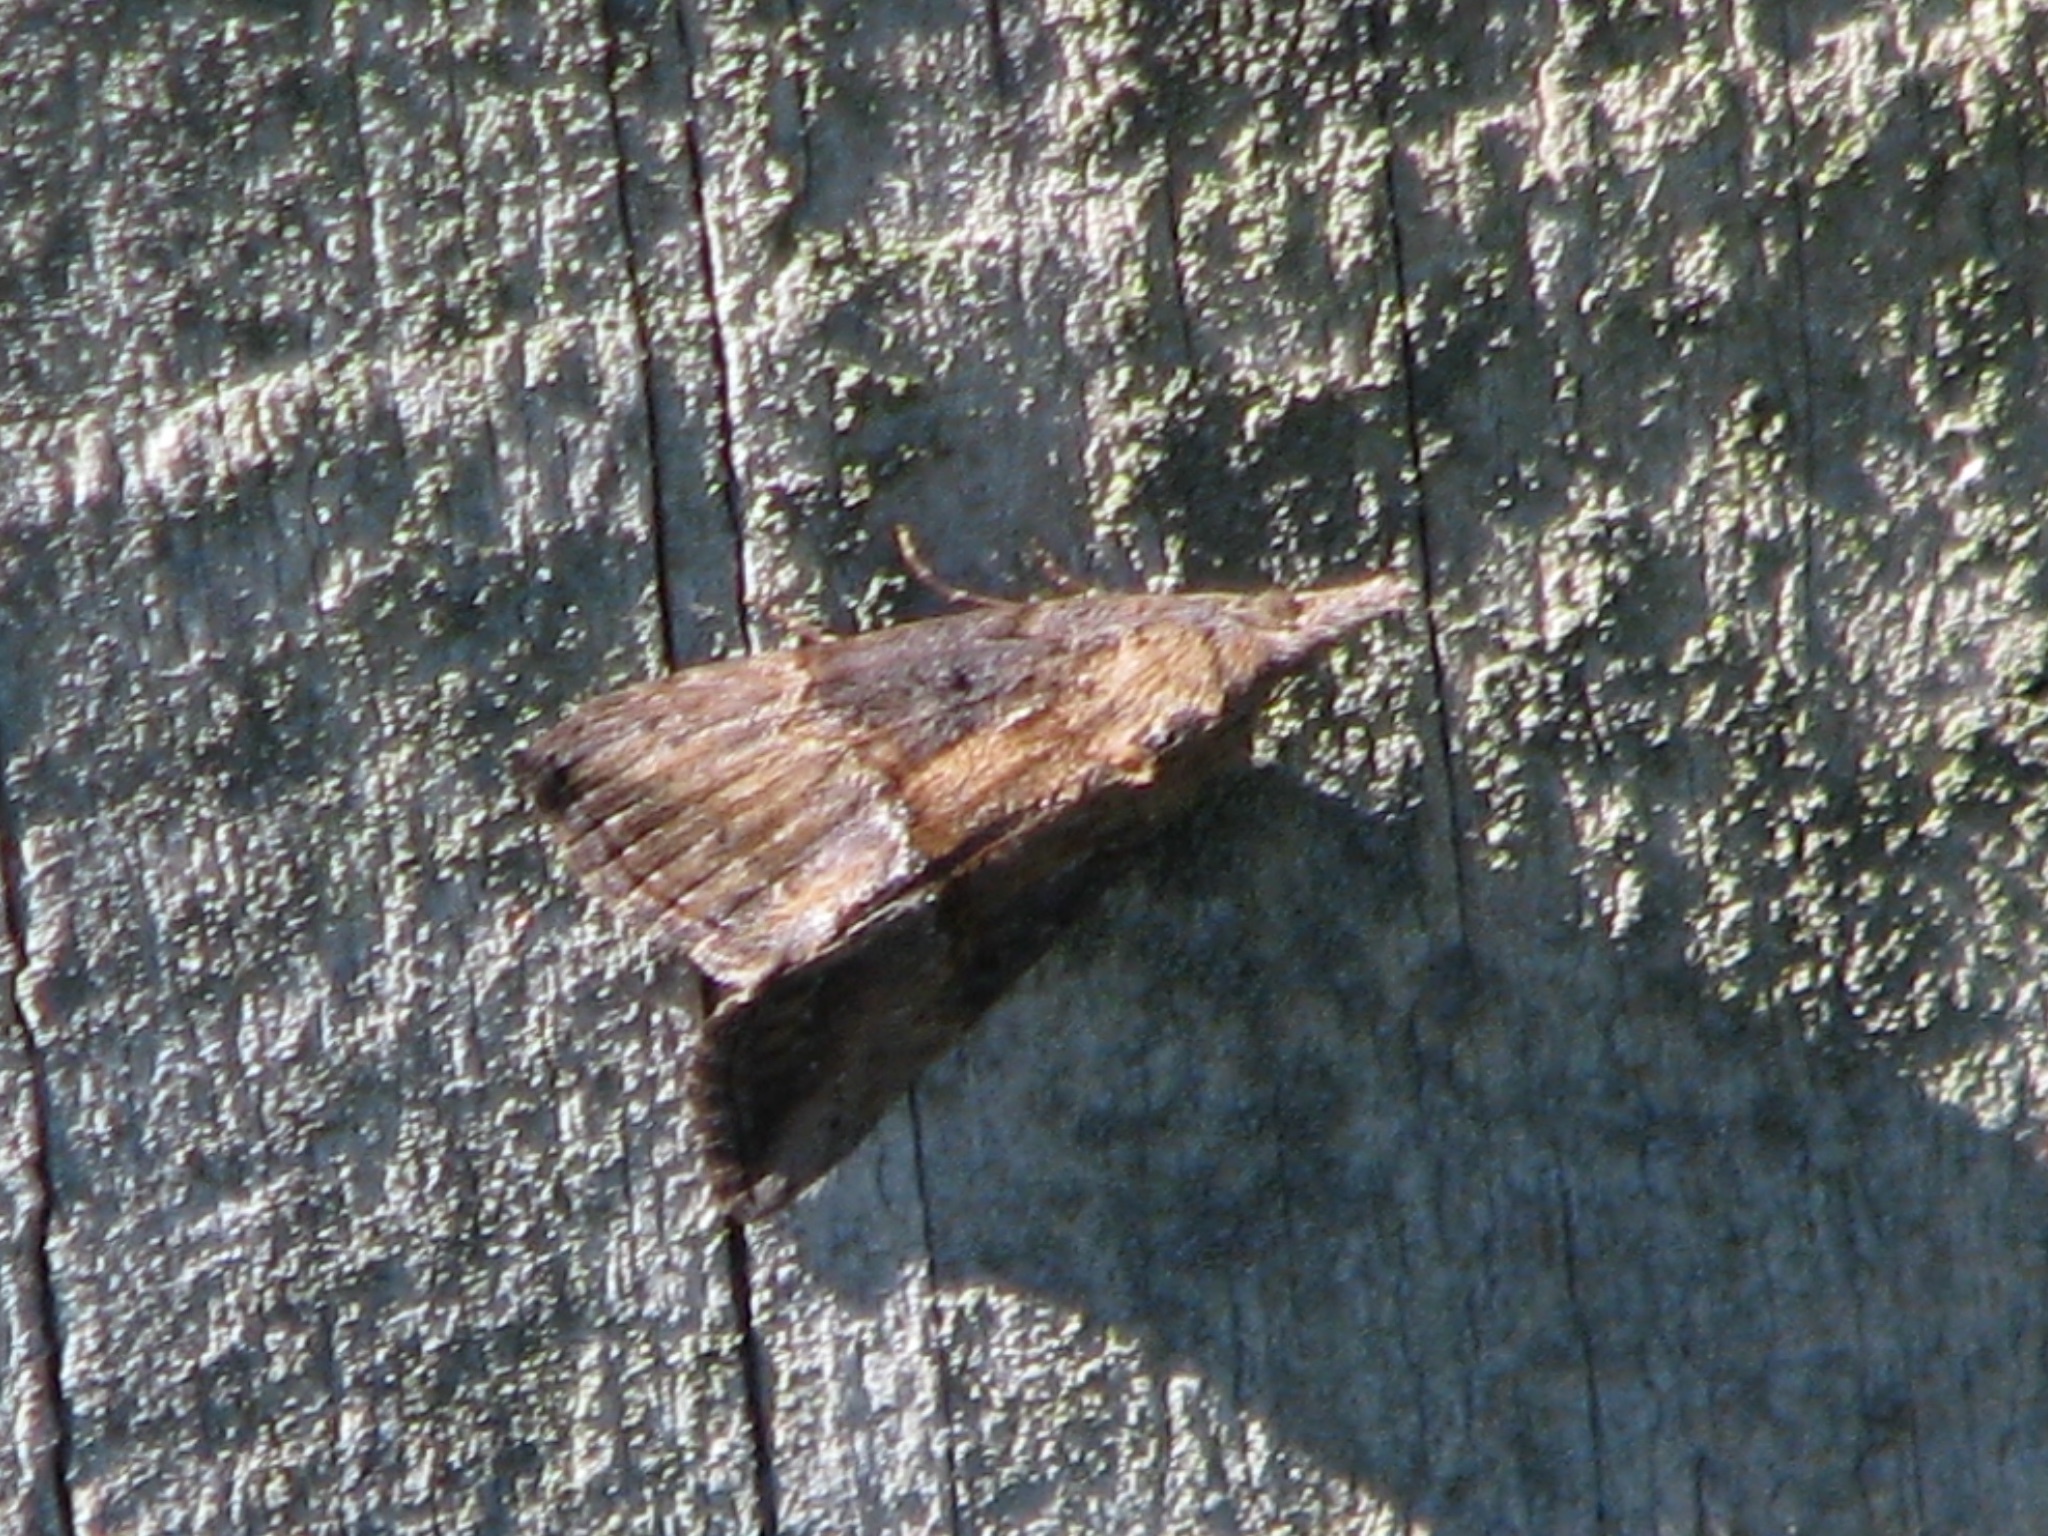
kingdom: Animalia
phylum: Arthropoda
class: Insecta
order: Lepidoptera
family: Erebidae
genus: Hypena
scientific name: Hypena scabra
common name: Green cloverworm
